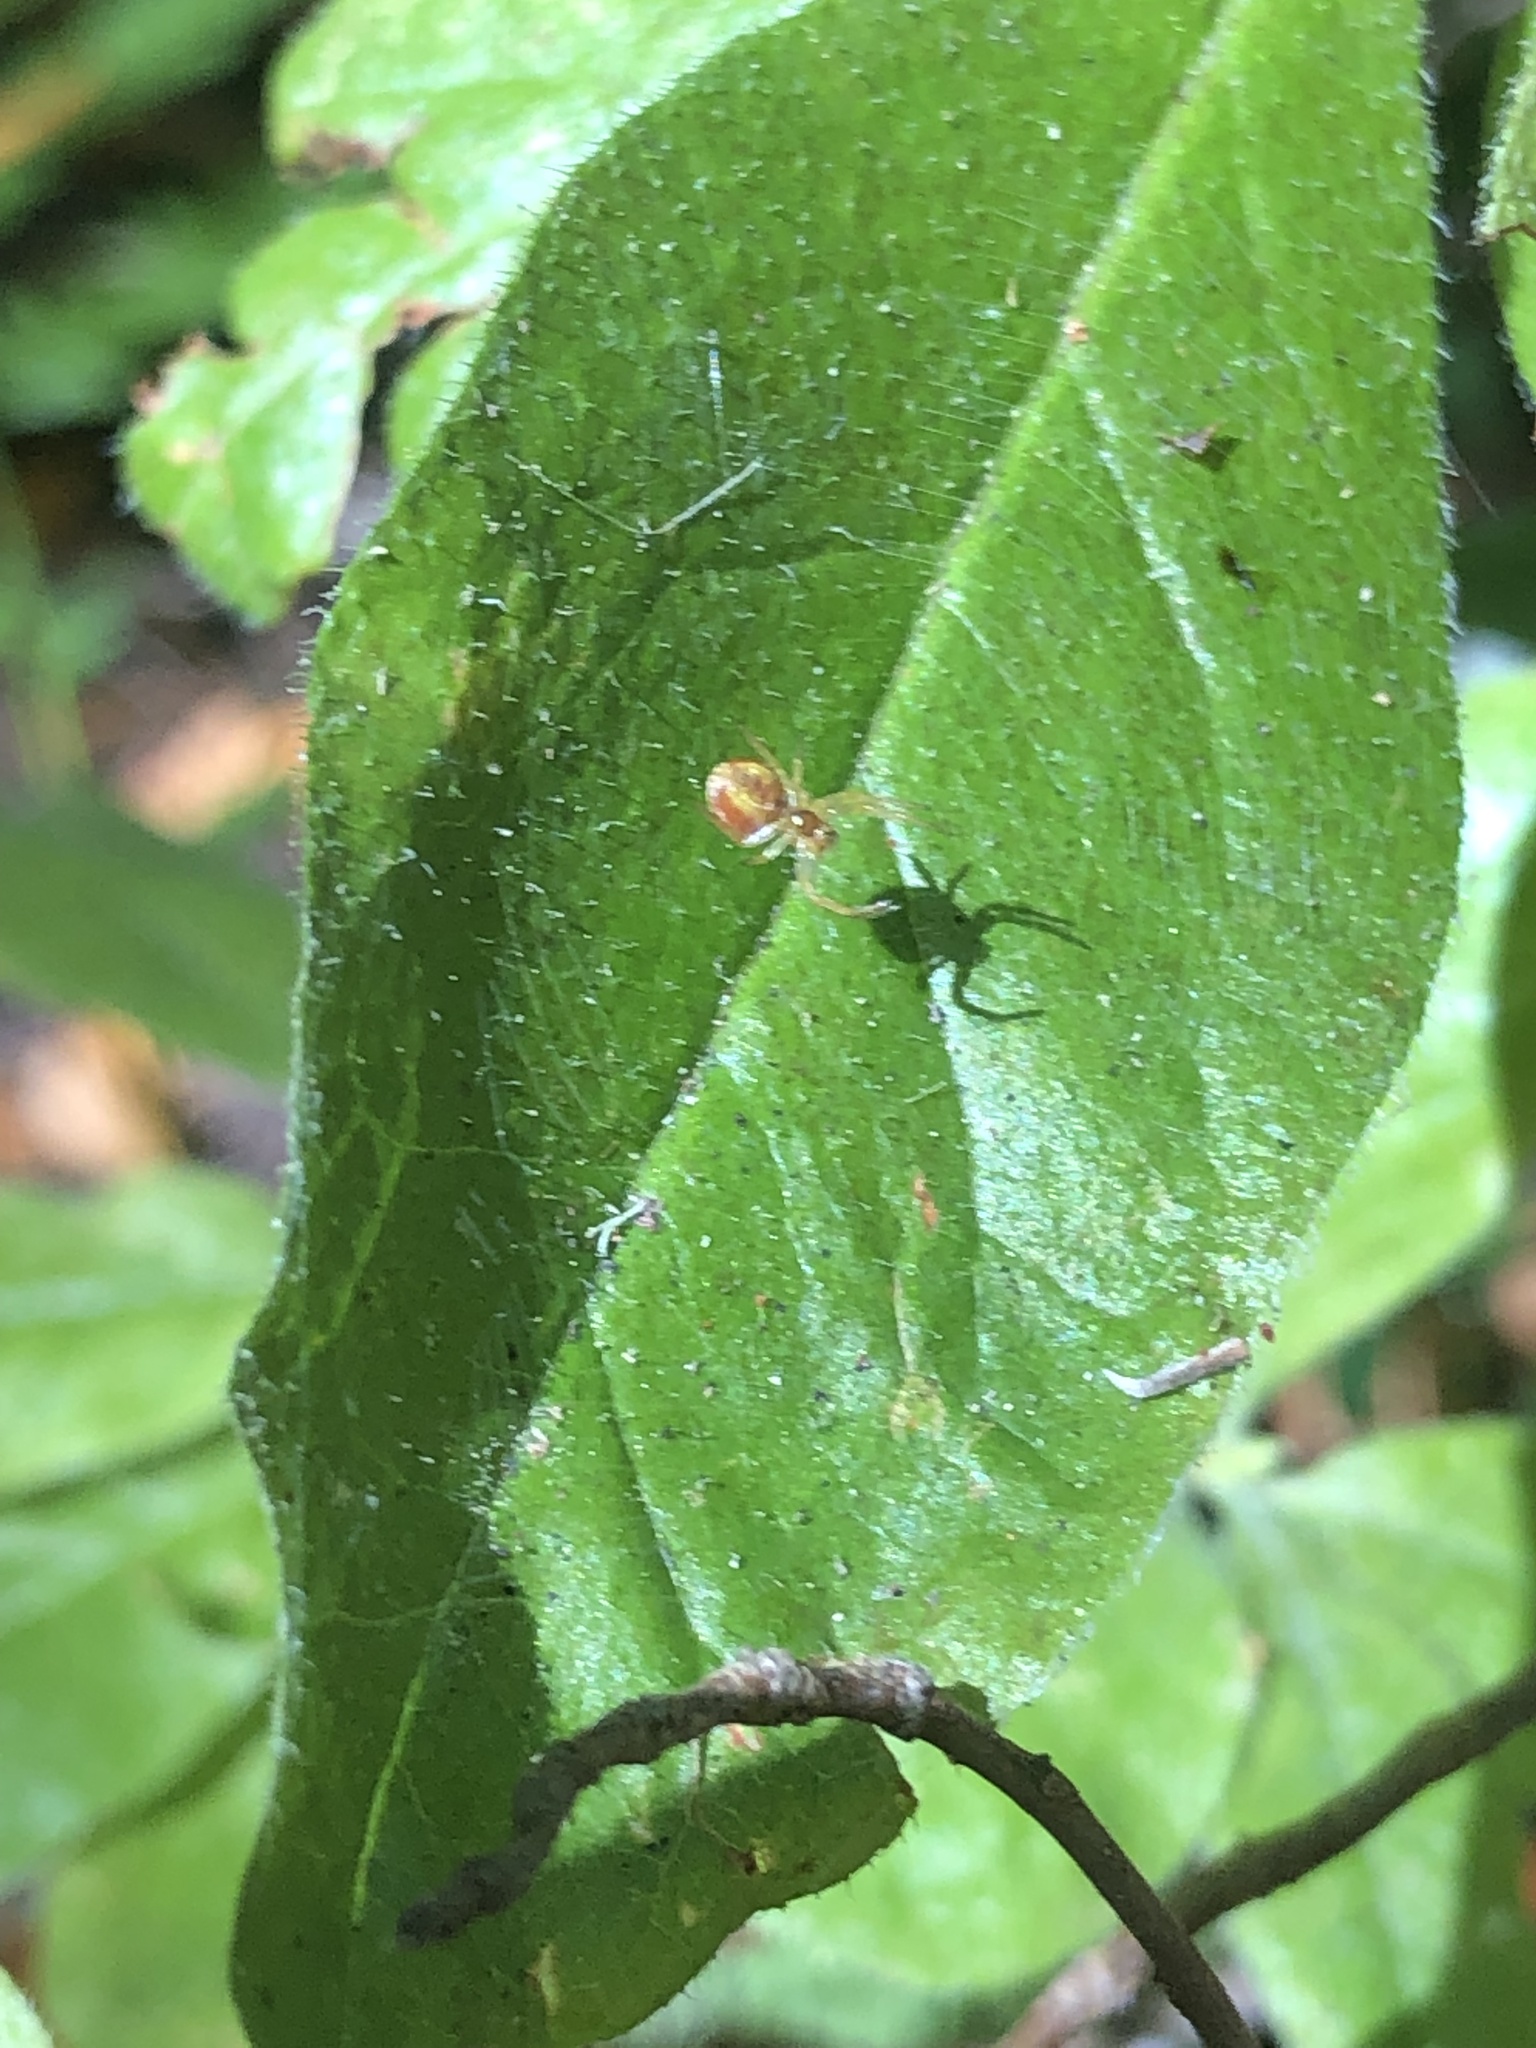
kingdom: Animalia
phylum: Arthropoda
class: Arachnida
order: Araneae
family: Araneidae
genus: Araniella
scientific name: Araniella displicata
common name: Sixspotted orb weaver
